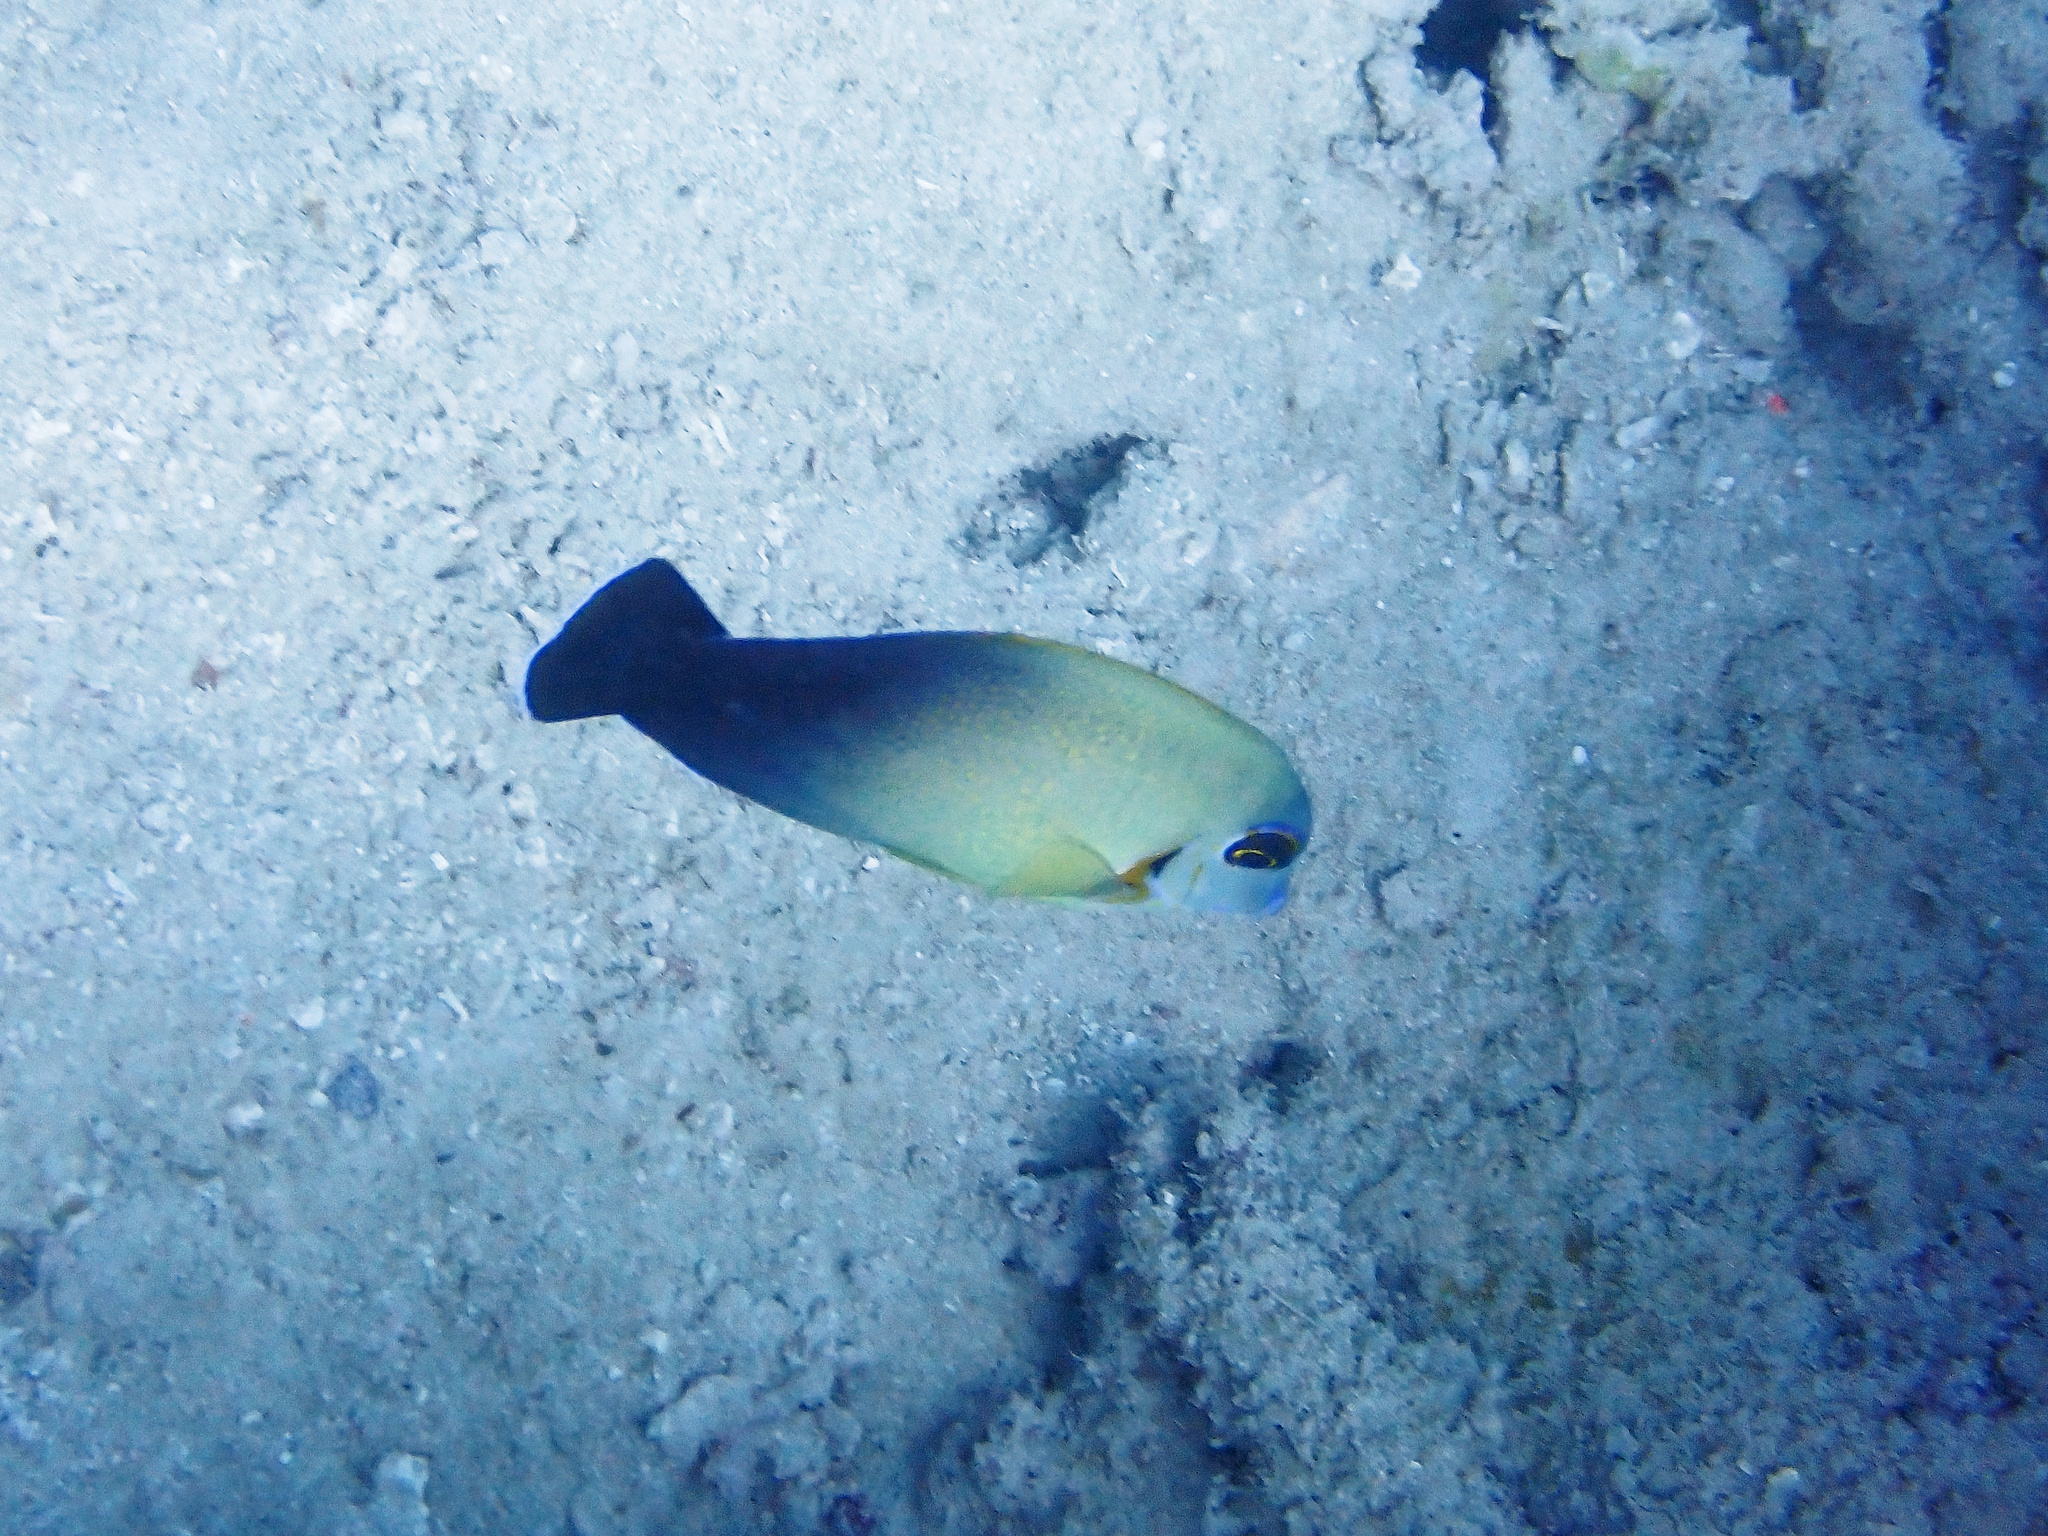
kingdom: Animalia
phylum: Chordata
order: Perciformes
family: Acanthuridae
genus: Acanthurus
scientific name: Acanthurus pyroferus
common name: Chocolate surgeonfish
